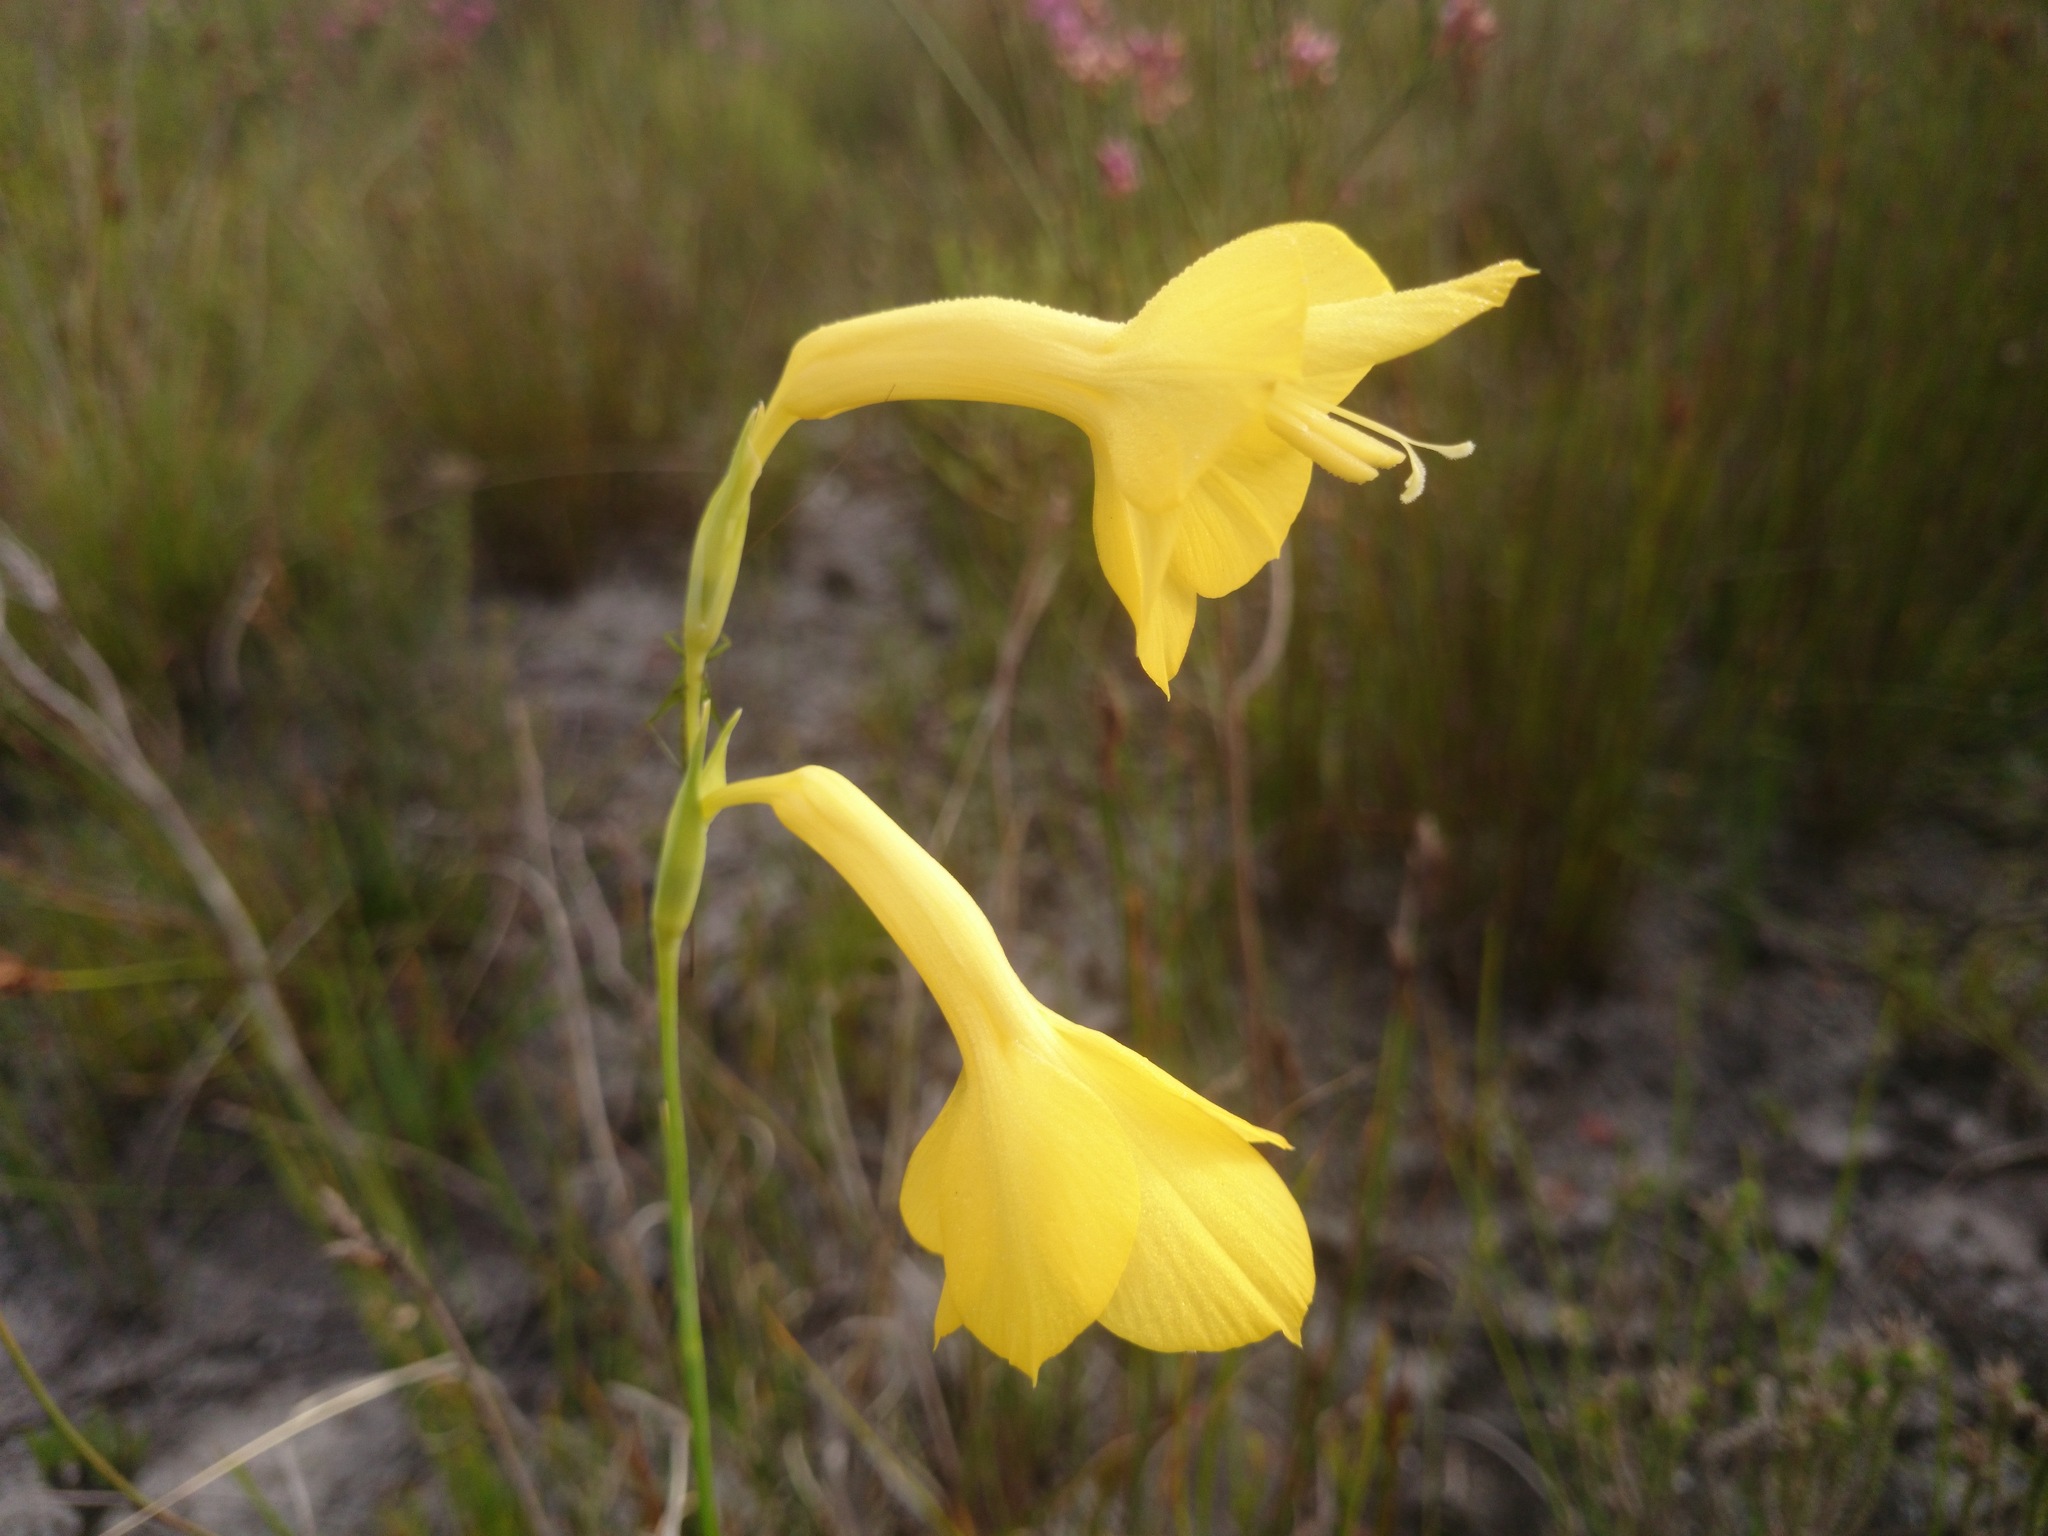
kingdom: Plantae
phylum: Tracheophyta
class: Liliopsida
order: Asparagales
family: Iridaceae
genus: Gladiolus
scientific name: Gladiolus merianellus
